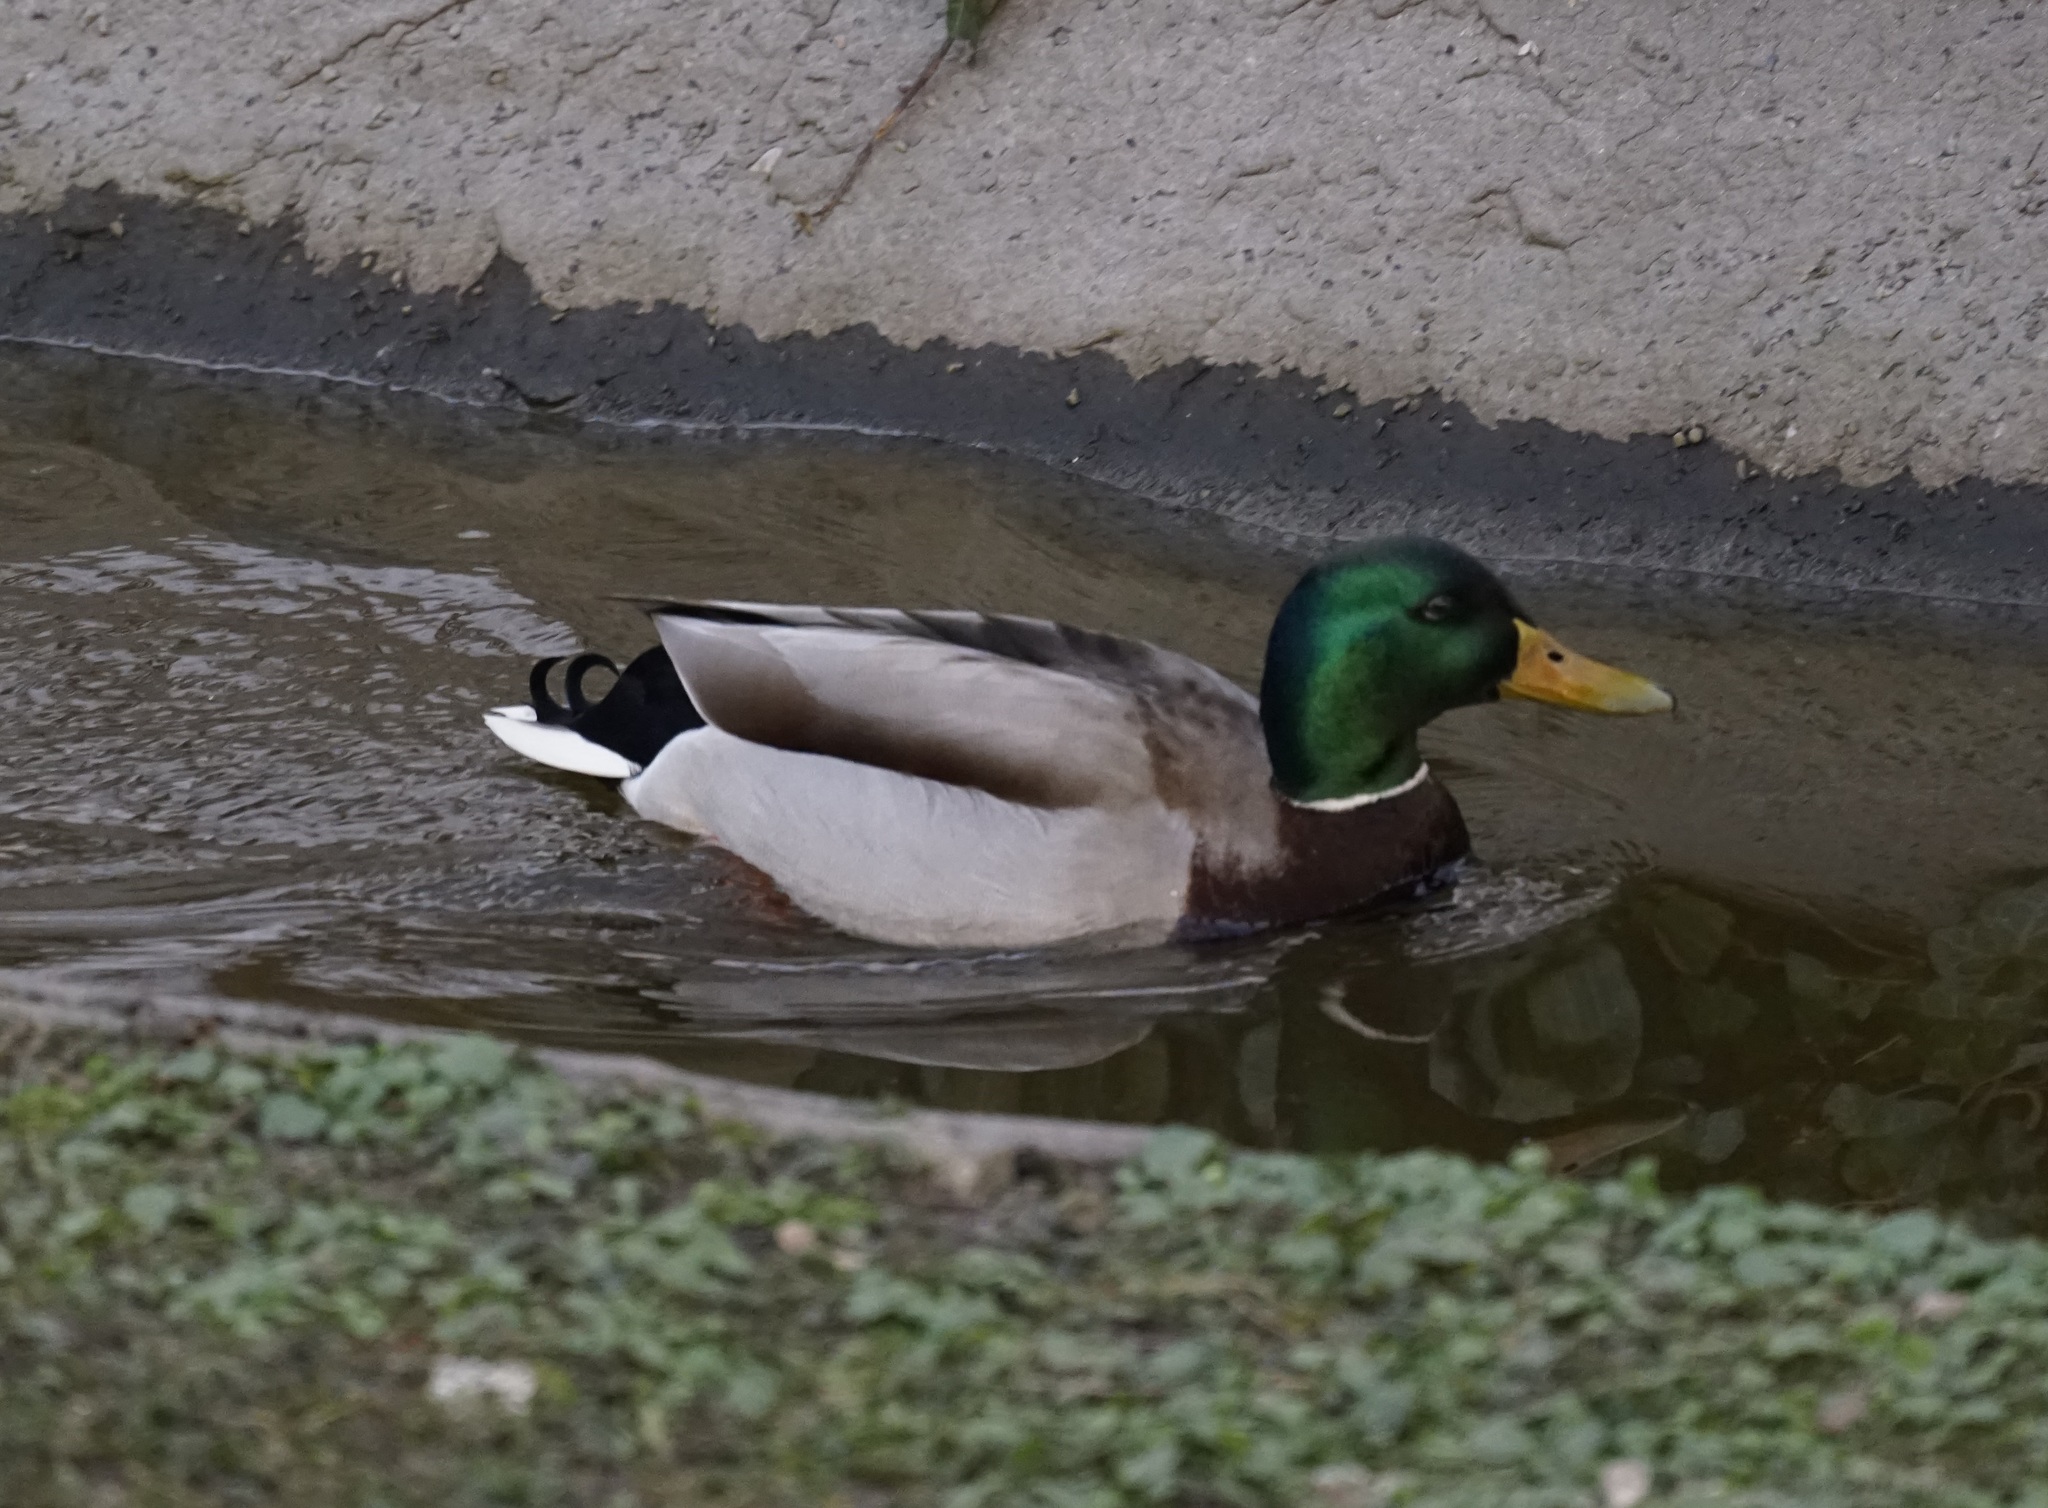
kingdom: Animalia
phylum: Chordata
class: Aves
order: Anseriformes
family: Anatidae
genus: Anas
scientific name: Anas platyrhynchos
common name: Mallard
